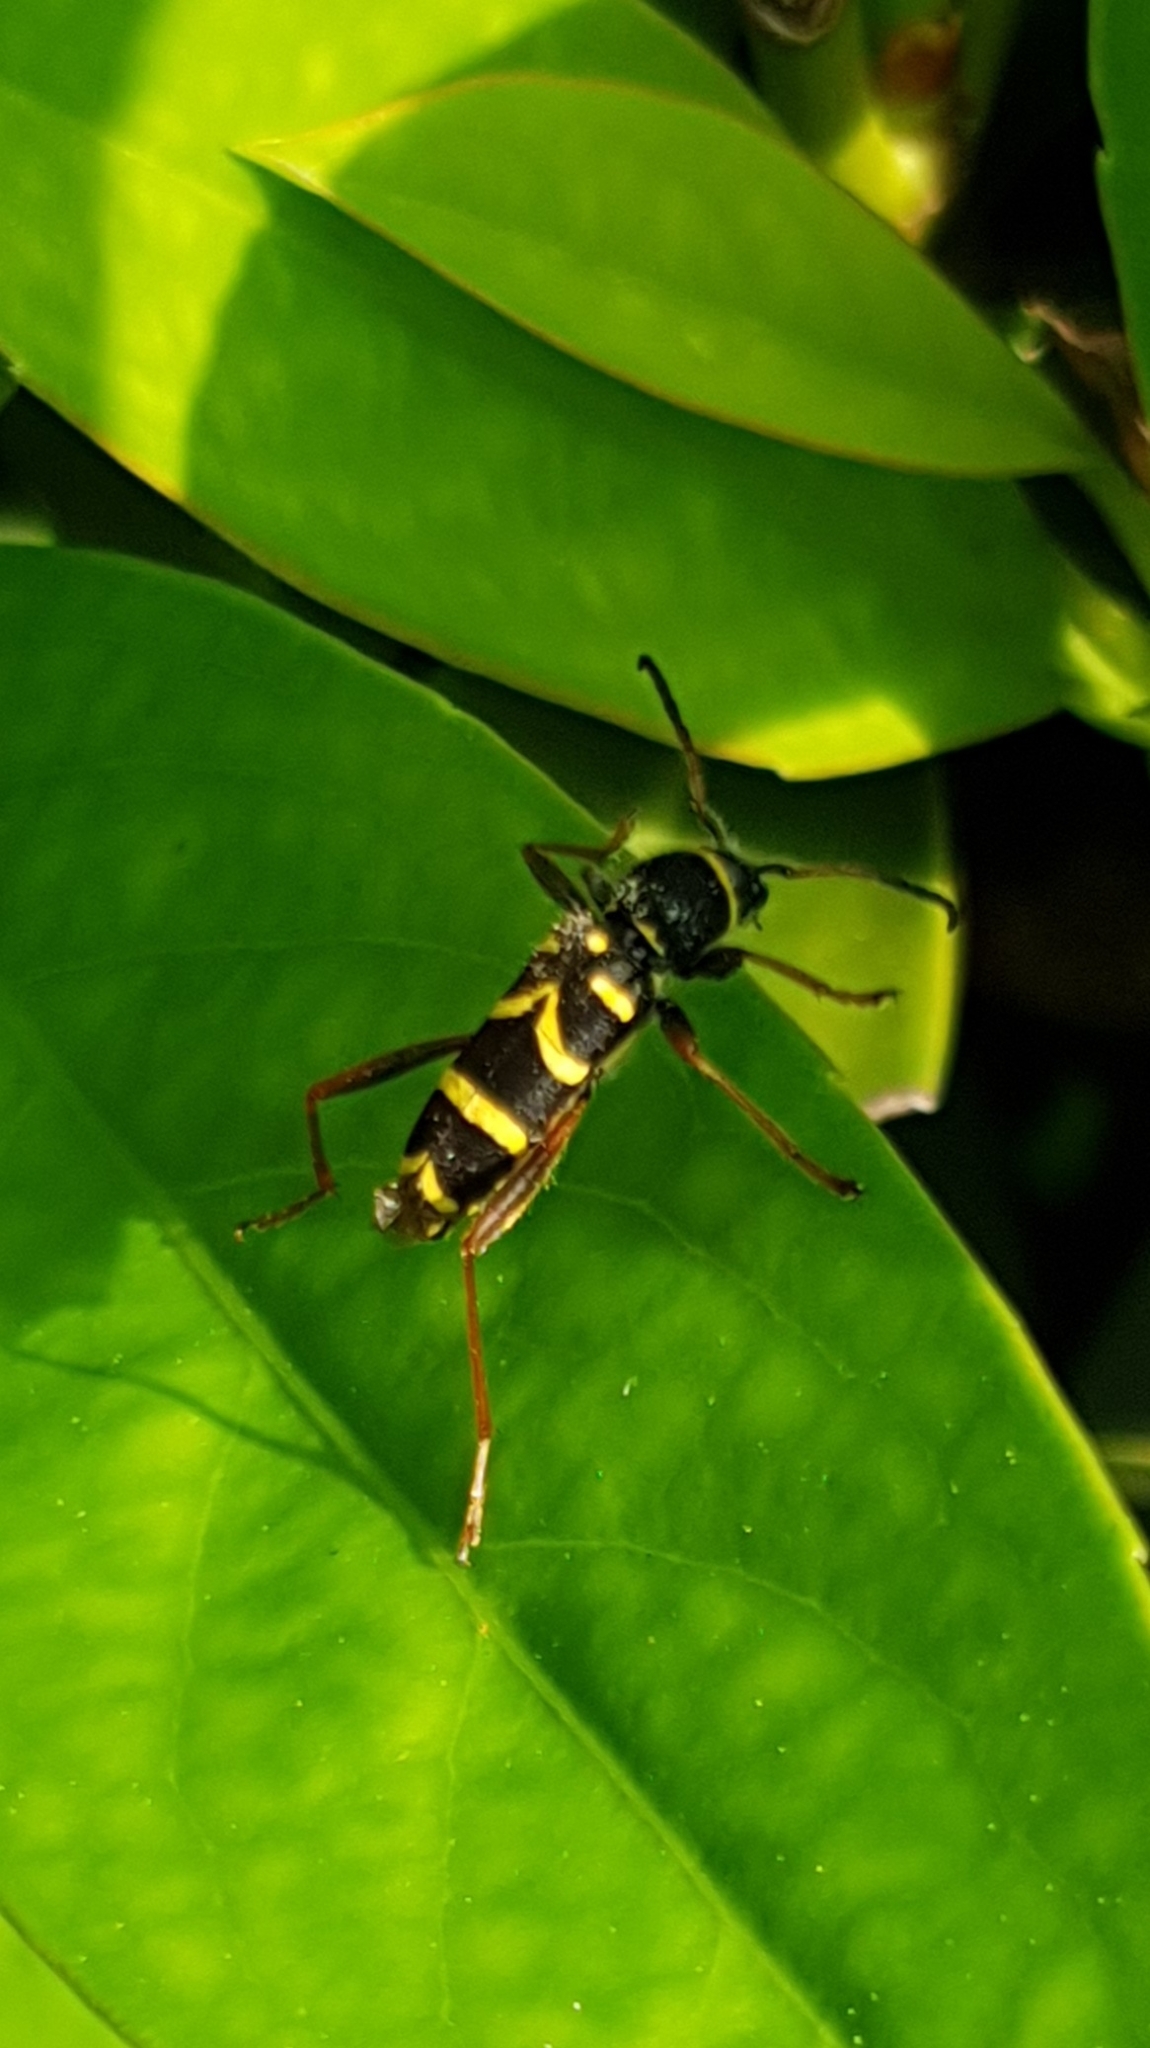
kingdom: Animalia
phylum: Arthropoda
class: Insecta
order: Coleoptera
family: Cerambycidae
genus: Clytus
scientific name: Clytus arietis
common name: Wasp beetle
